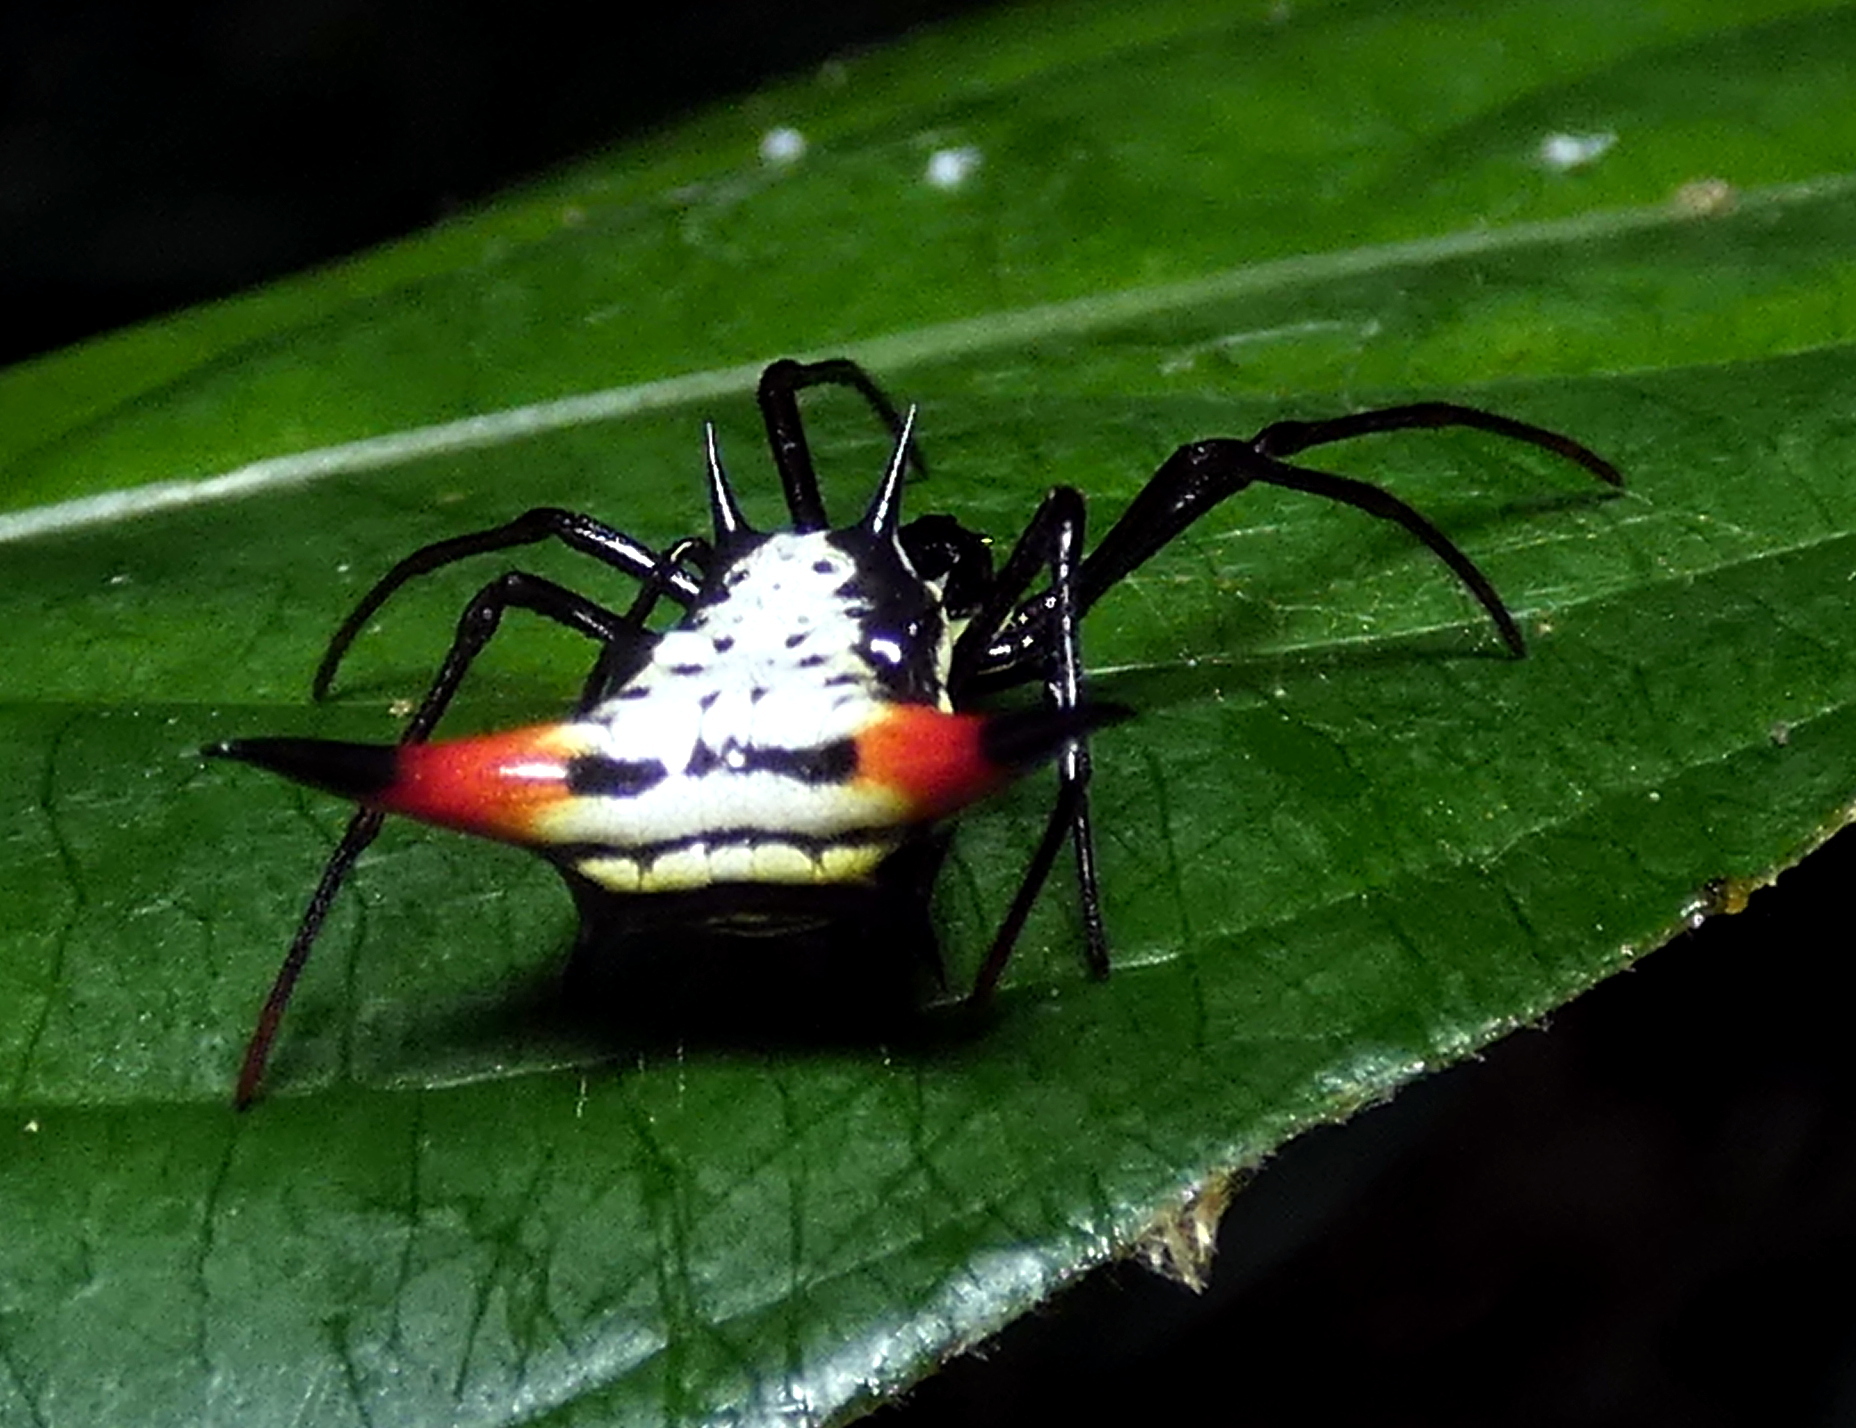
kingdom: Animalia
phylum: Arthropoda
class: Arachnida
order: Araneae
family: Araneidae
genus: Micrathena
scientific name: Micrathena schreibersi
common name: Orb weavers
